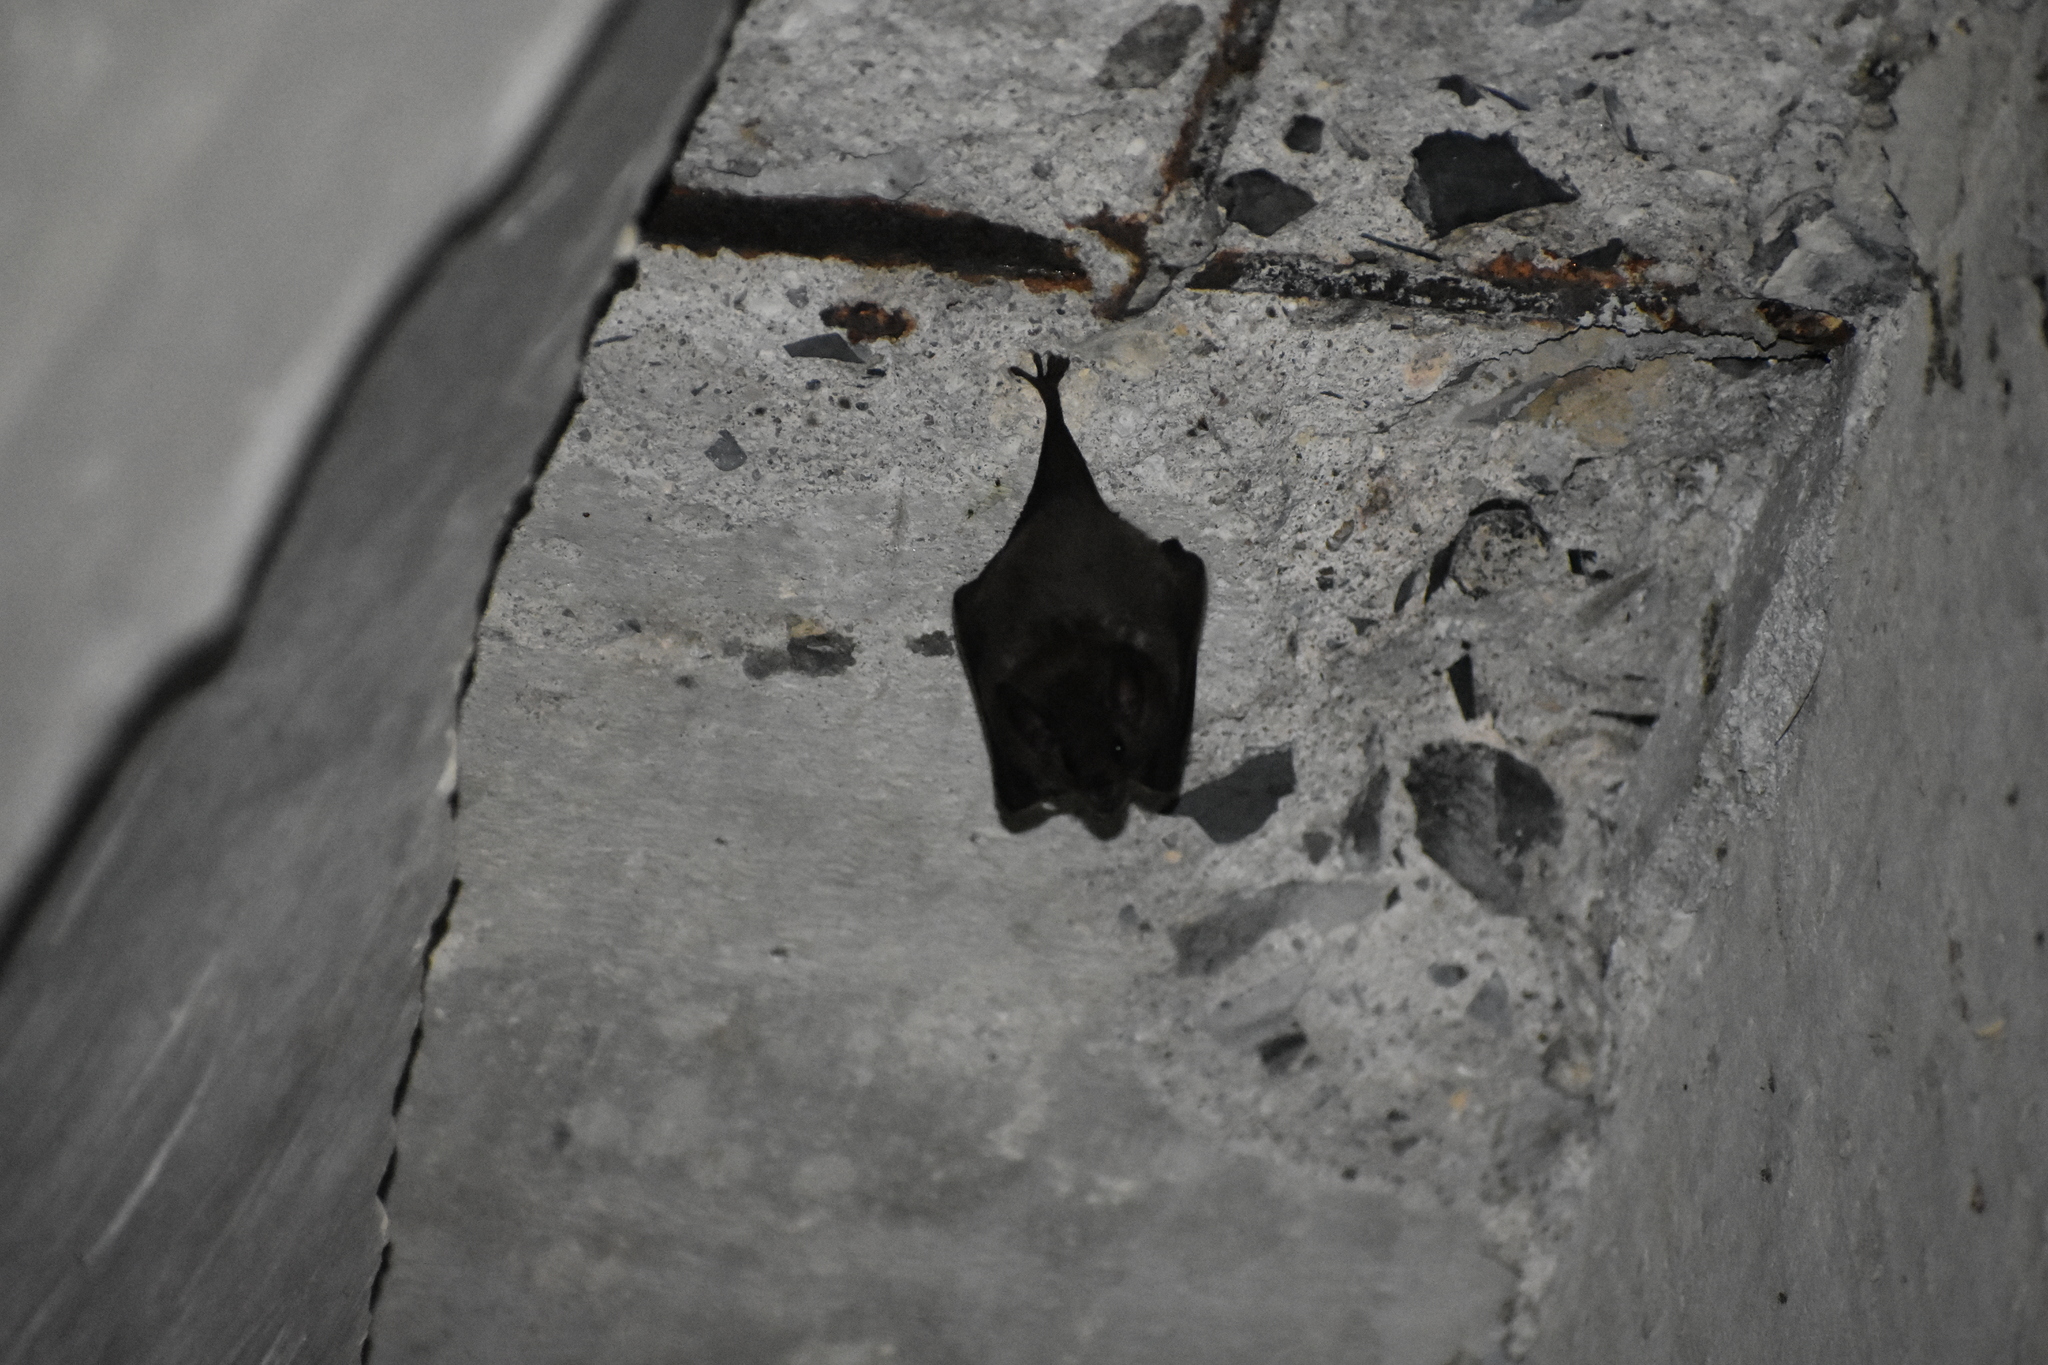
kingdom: Animalia
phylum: Chordata
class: Mammalia
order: Chiroptera
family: Phyllostomidae
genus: Glossophaga
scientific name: Glossophaga soricina
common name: Pallas's long-tongued bat
